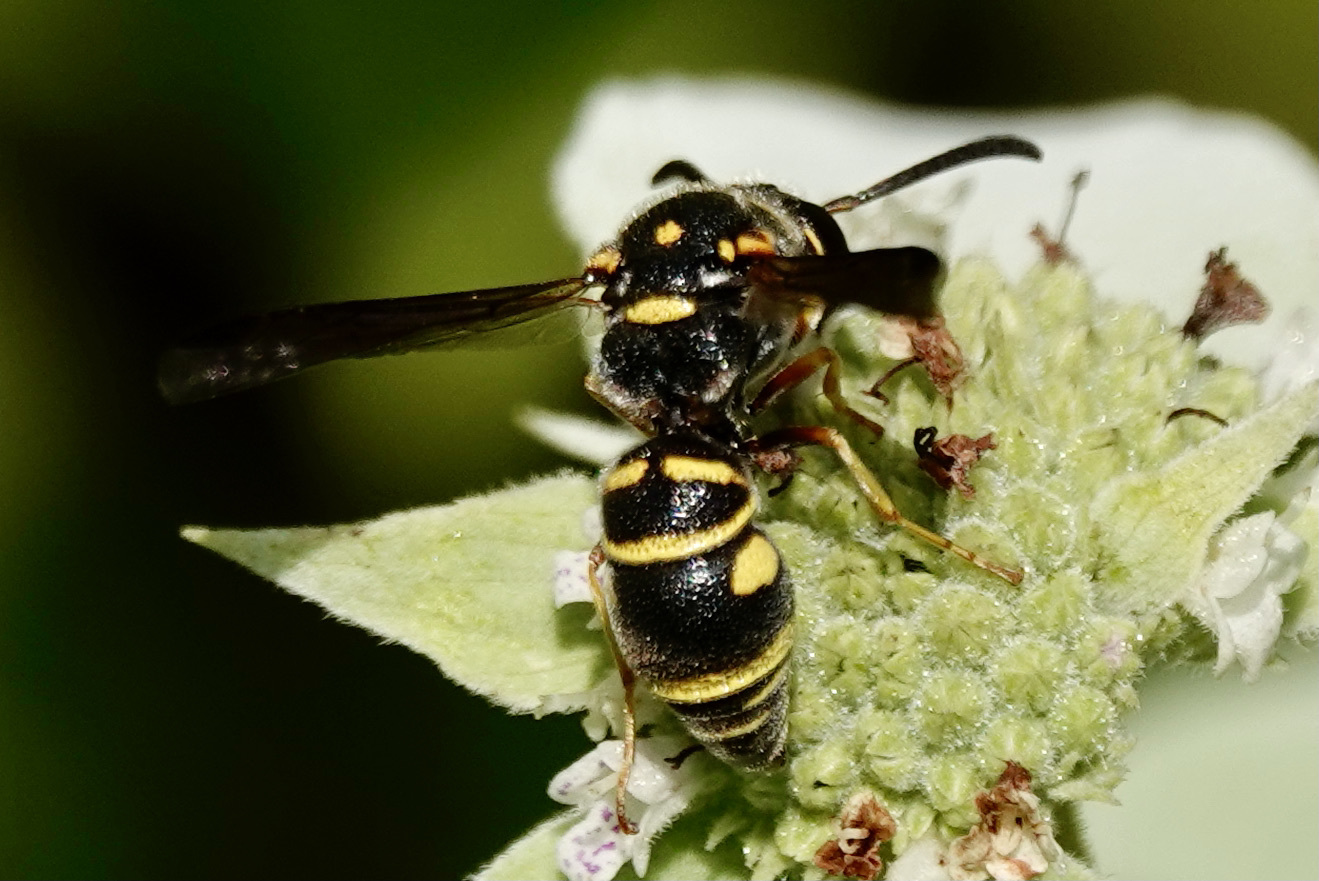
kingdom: Animalia
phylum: Arthropoda
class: Insecta
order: Hymenoptera
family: Eumenidae
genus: Parancistrocerus
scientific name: Parancistrocerus
